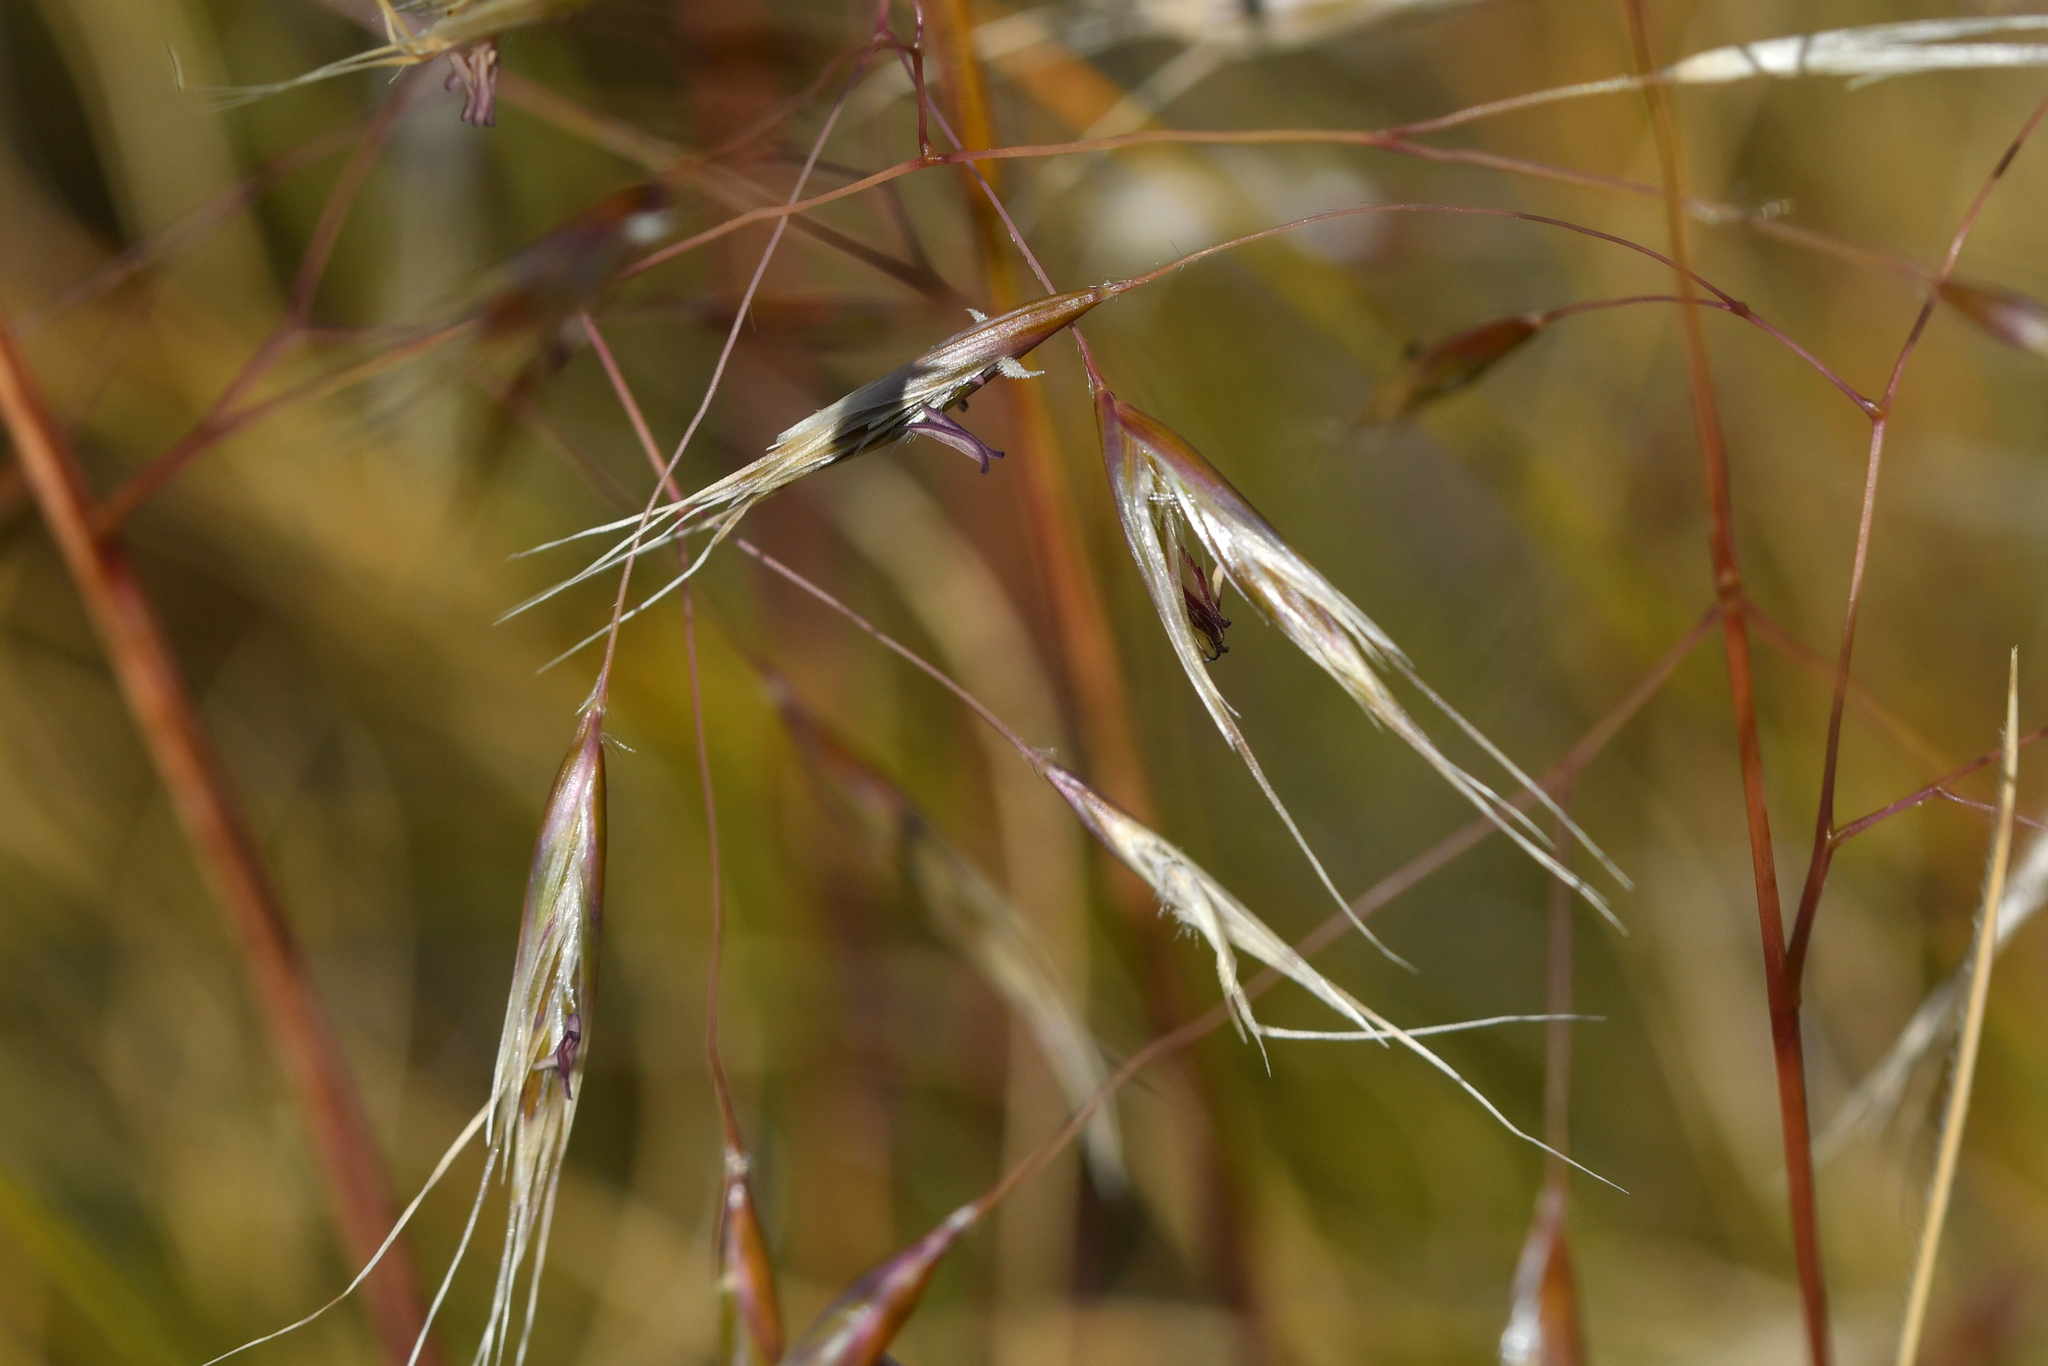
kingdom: Plantae
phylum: Tracheophyta
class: Liliopsida
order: Poales
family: Poaceae
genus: Chionochloa
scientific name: Chionochloa crassiuscula
